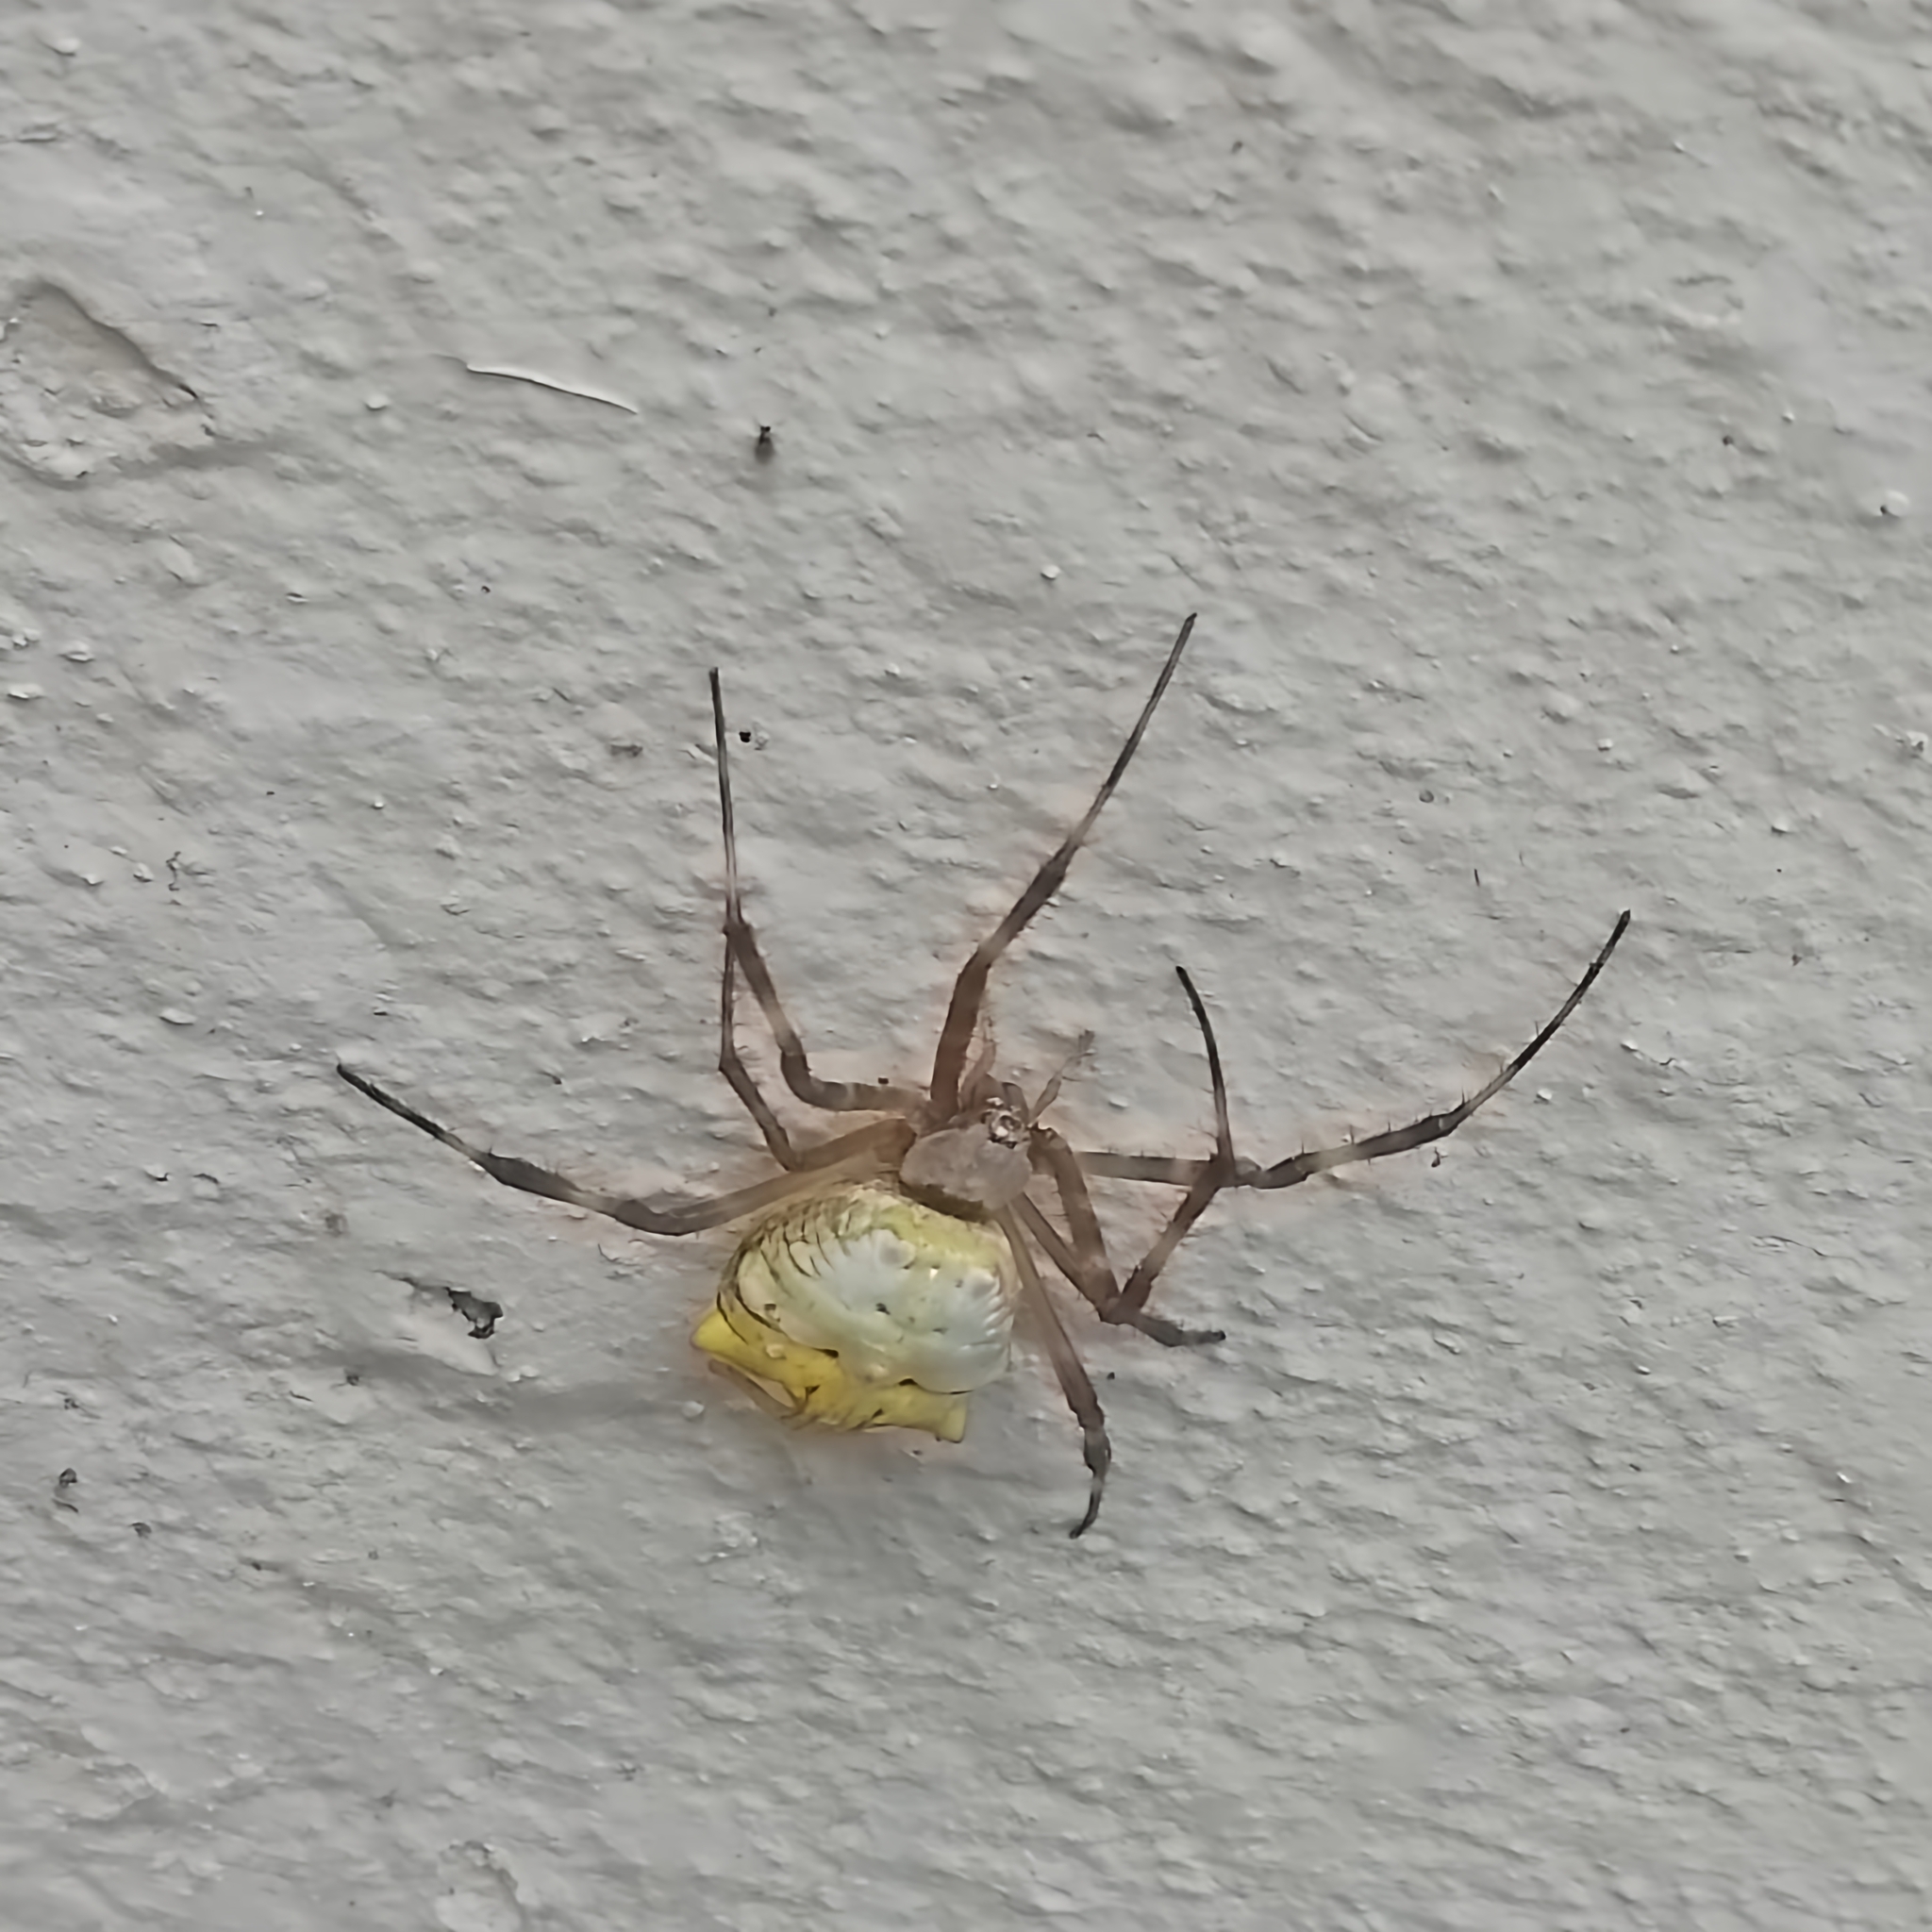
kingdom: Animalia
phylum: Arthropoda
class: Arachnida
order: Araneae
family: Araneidae
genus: Argiope
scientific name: Argiope argentata
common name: Orb weavers
